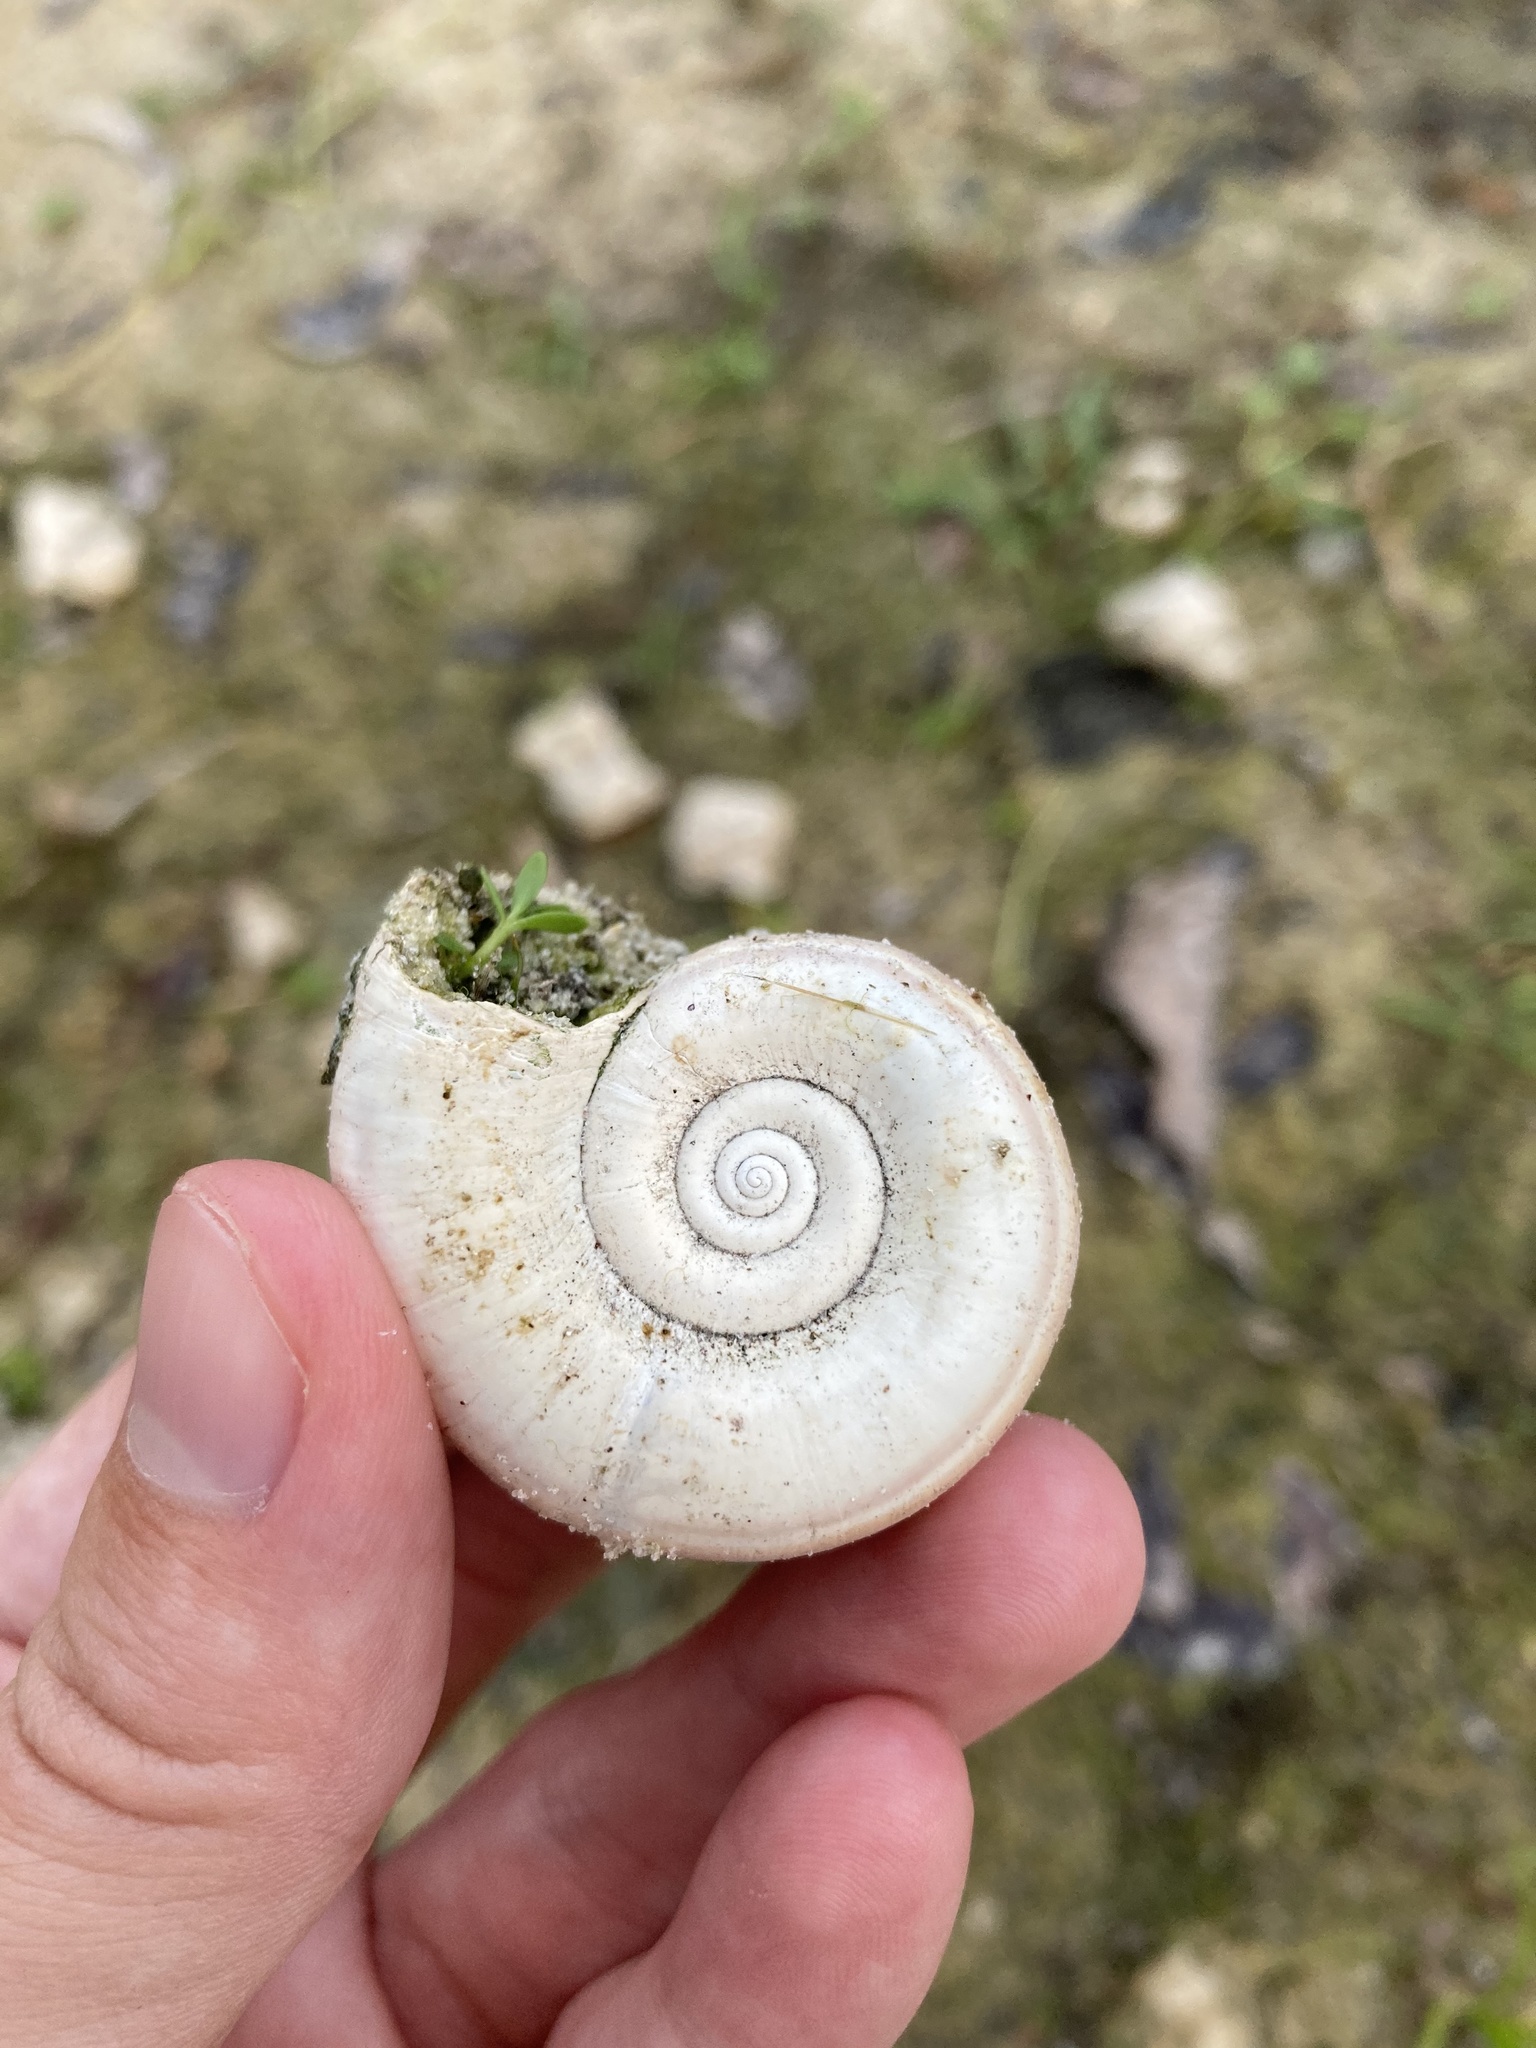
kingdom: Animalia
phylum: Mollusca
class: Gastropoda
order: Architaenioglossa
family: Ampullariidae
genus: Marisa
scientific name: Marisa cornuarietis
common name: Giant ramshorn snail
